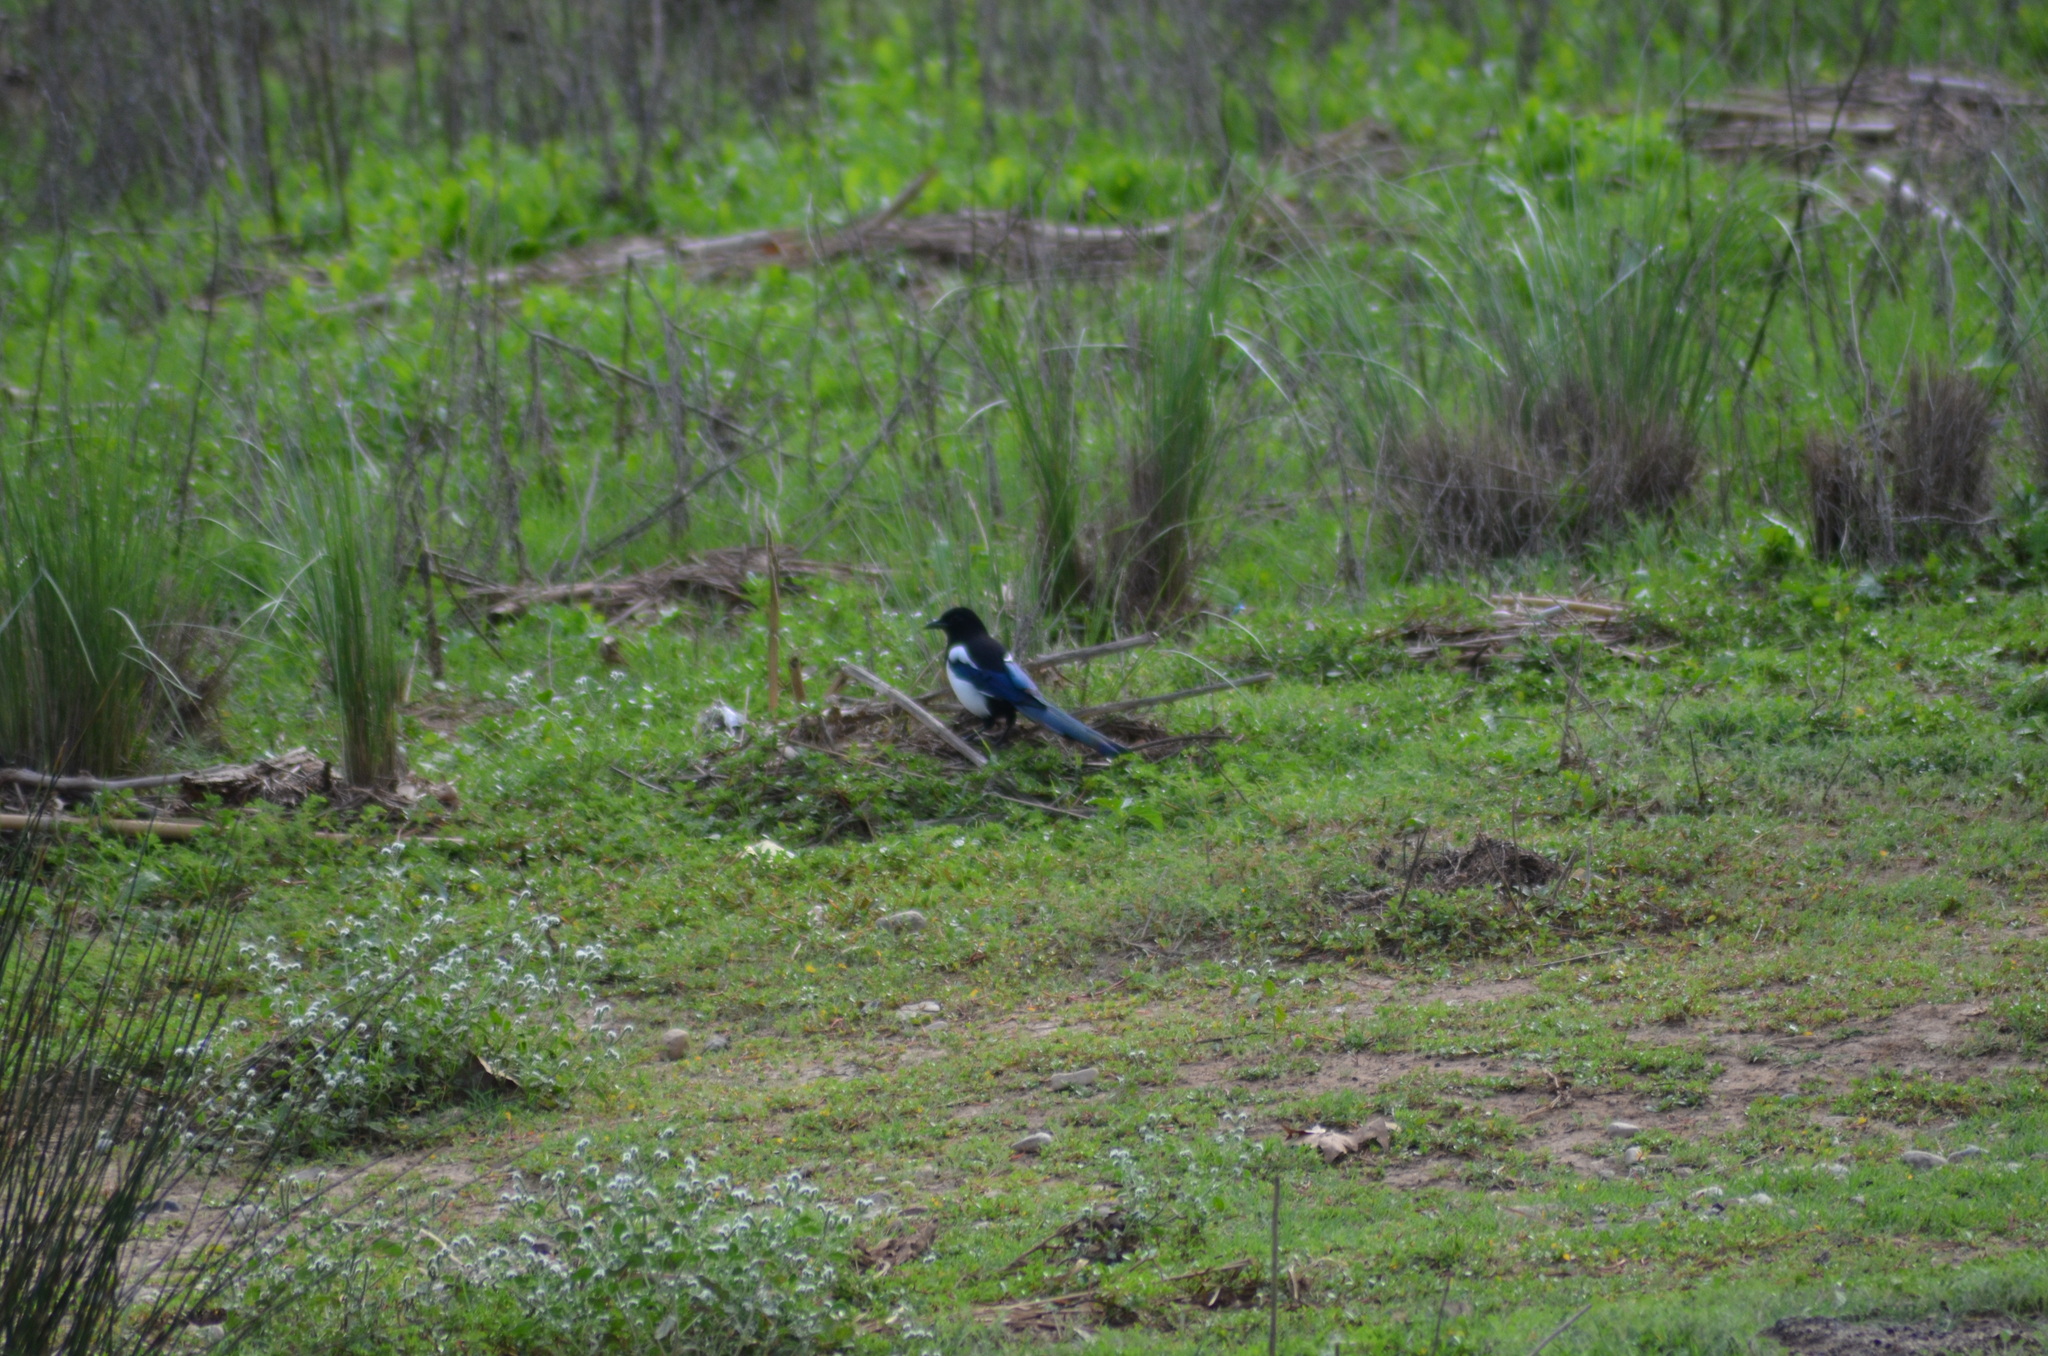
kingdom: Animalia
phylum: Chordata
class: Aves
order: Passeriformes
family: Corvidae
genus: Pica
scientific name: Pica pica
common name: Eurasian magpie
